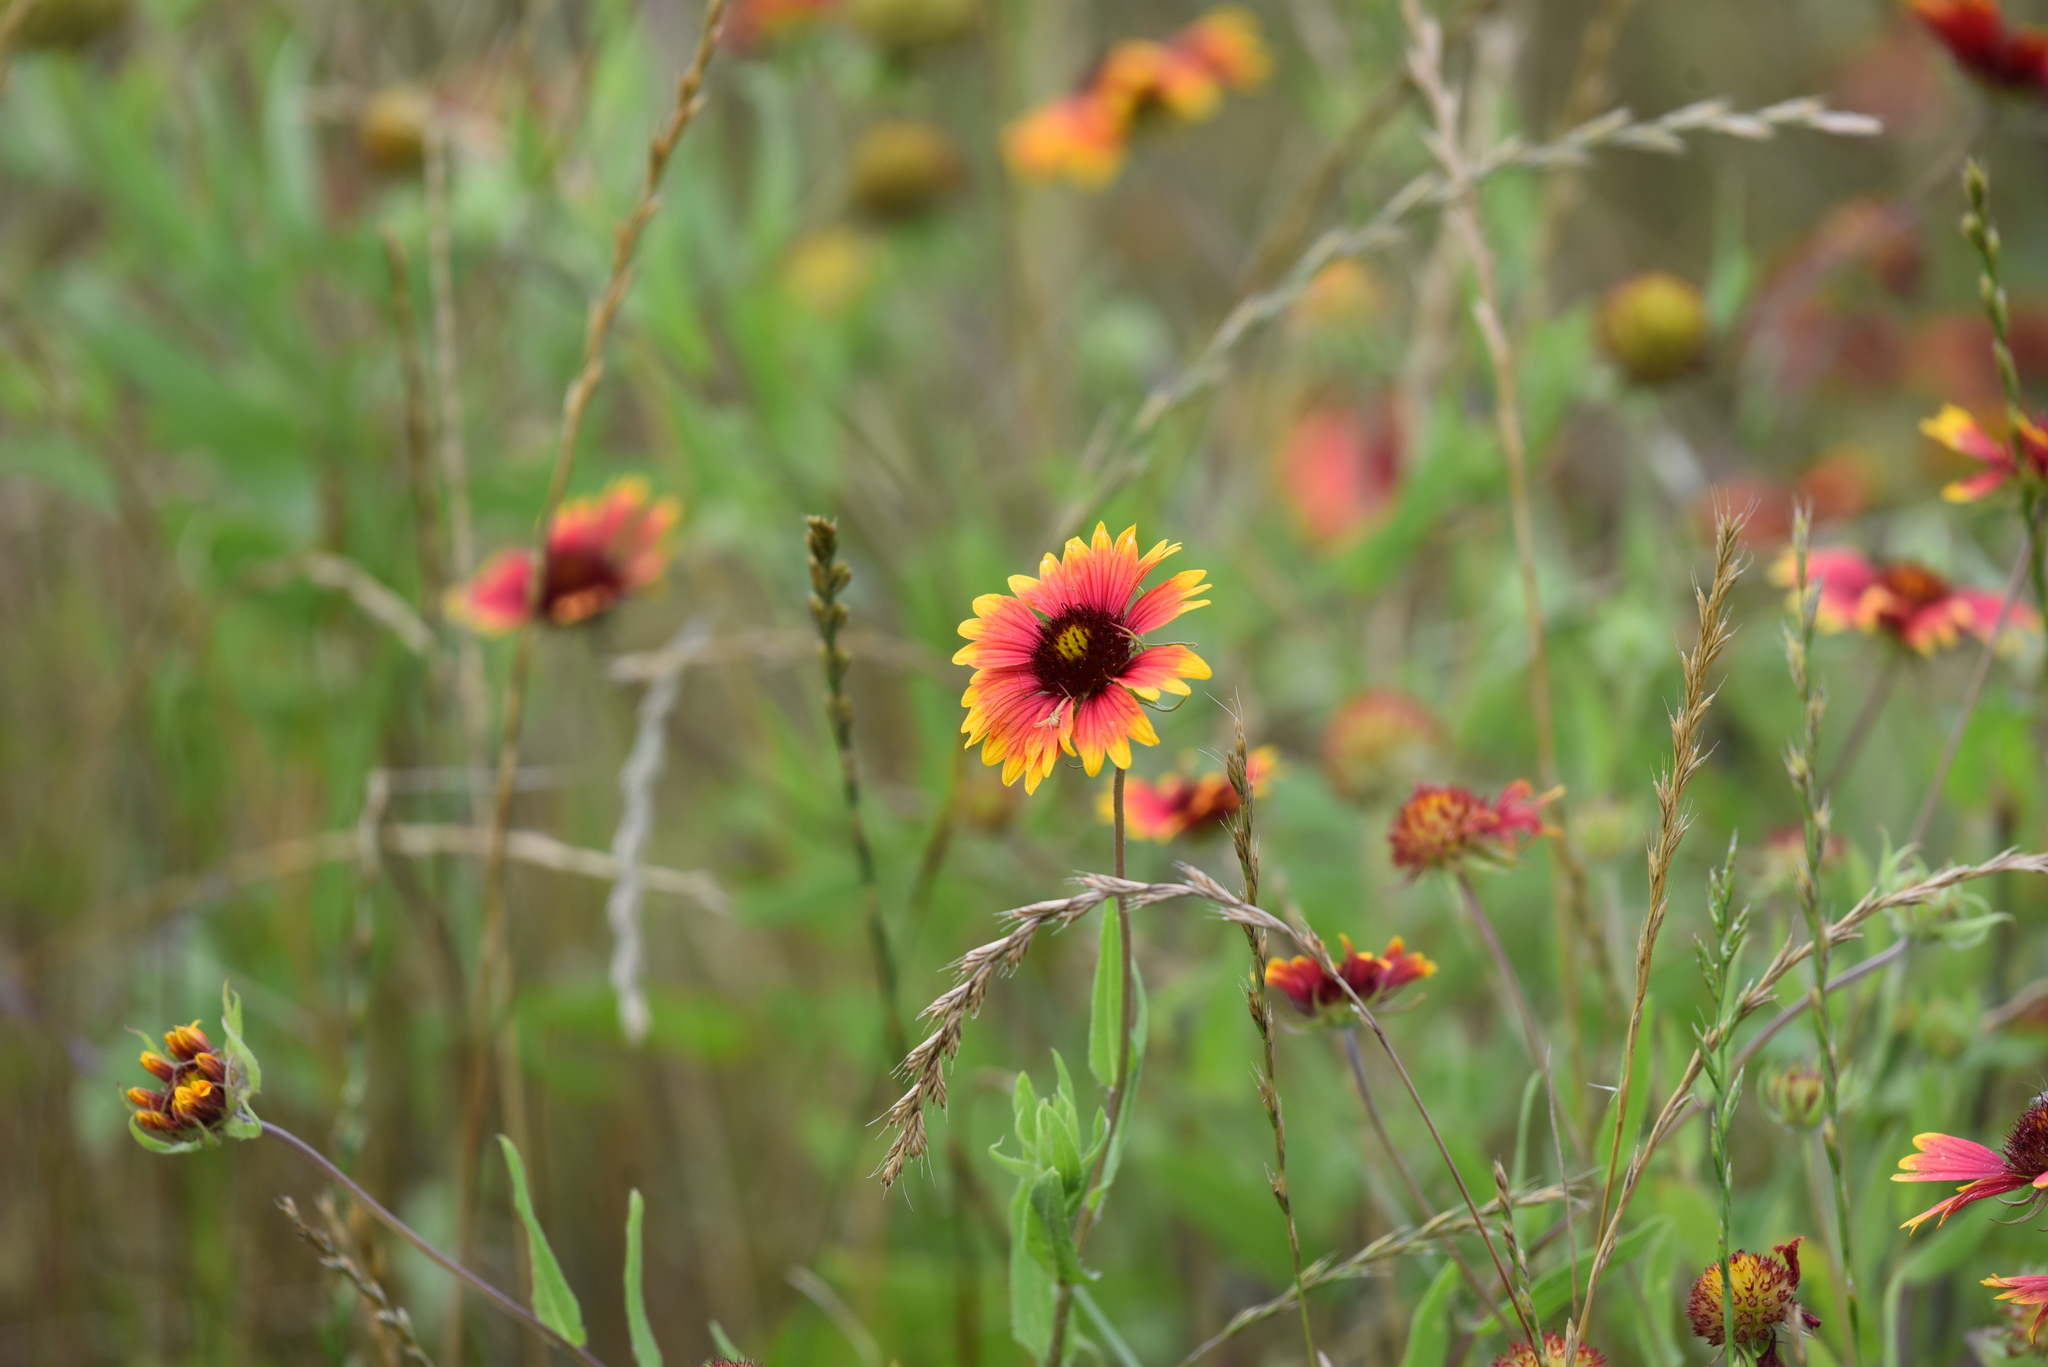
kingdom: Plantae
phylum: Tracheophyta
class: Magnoliopsida
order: Asterales
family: Asteraceae
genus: Gaillardia
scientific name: Gaillardia pulchella
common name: Firewheel
